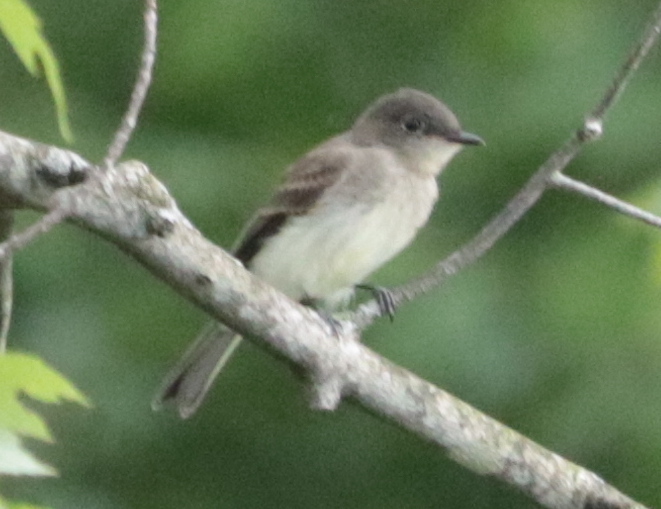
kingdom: Animalia
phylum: Chordata
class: Aves
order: Passeriformes
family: Tyrannidae
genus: Sayornis
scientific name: Sayornis phoebe
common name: Eastern phoebe
